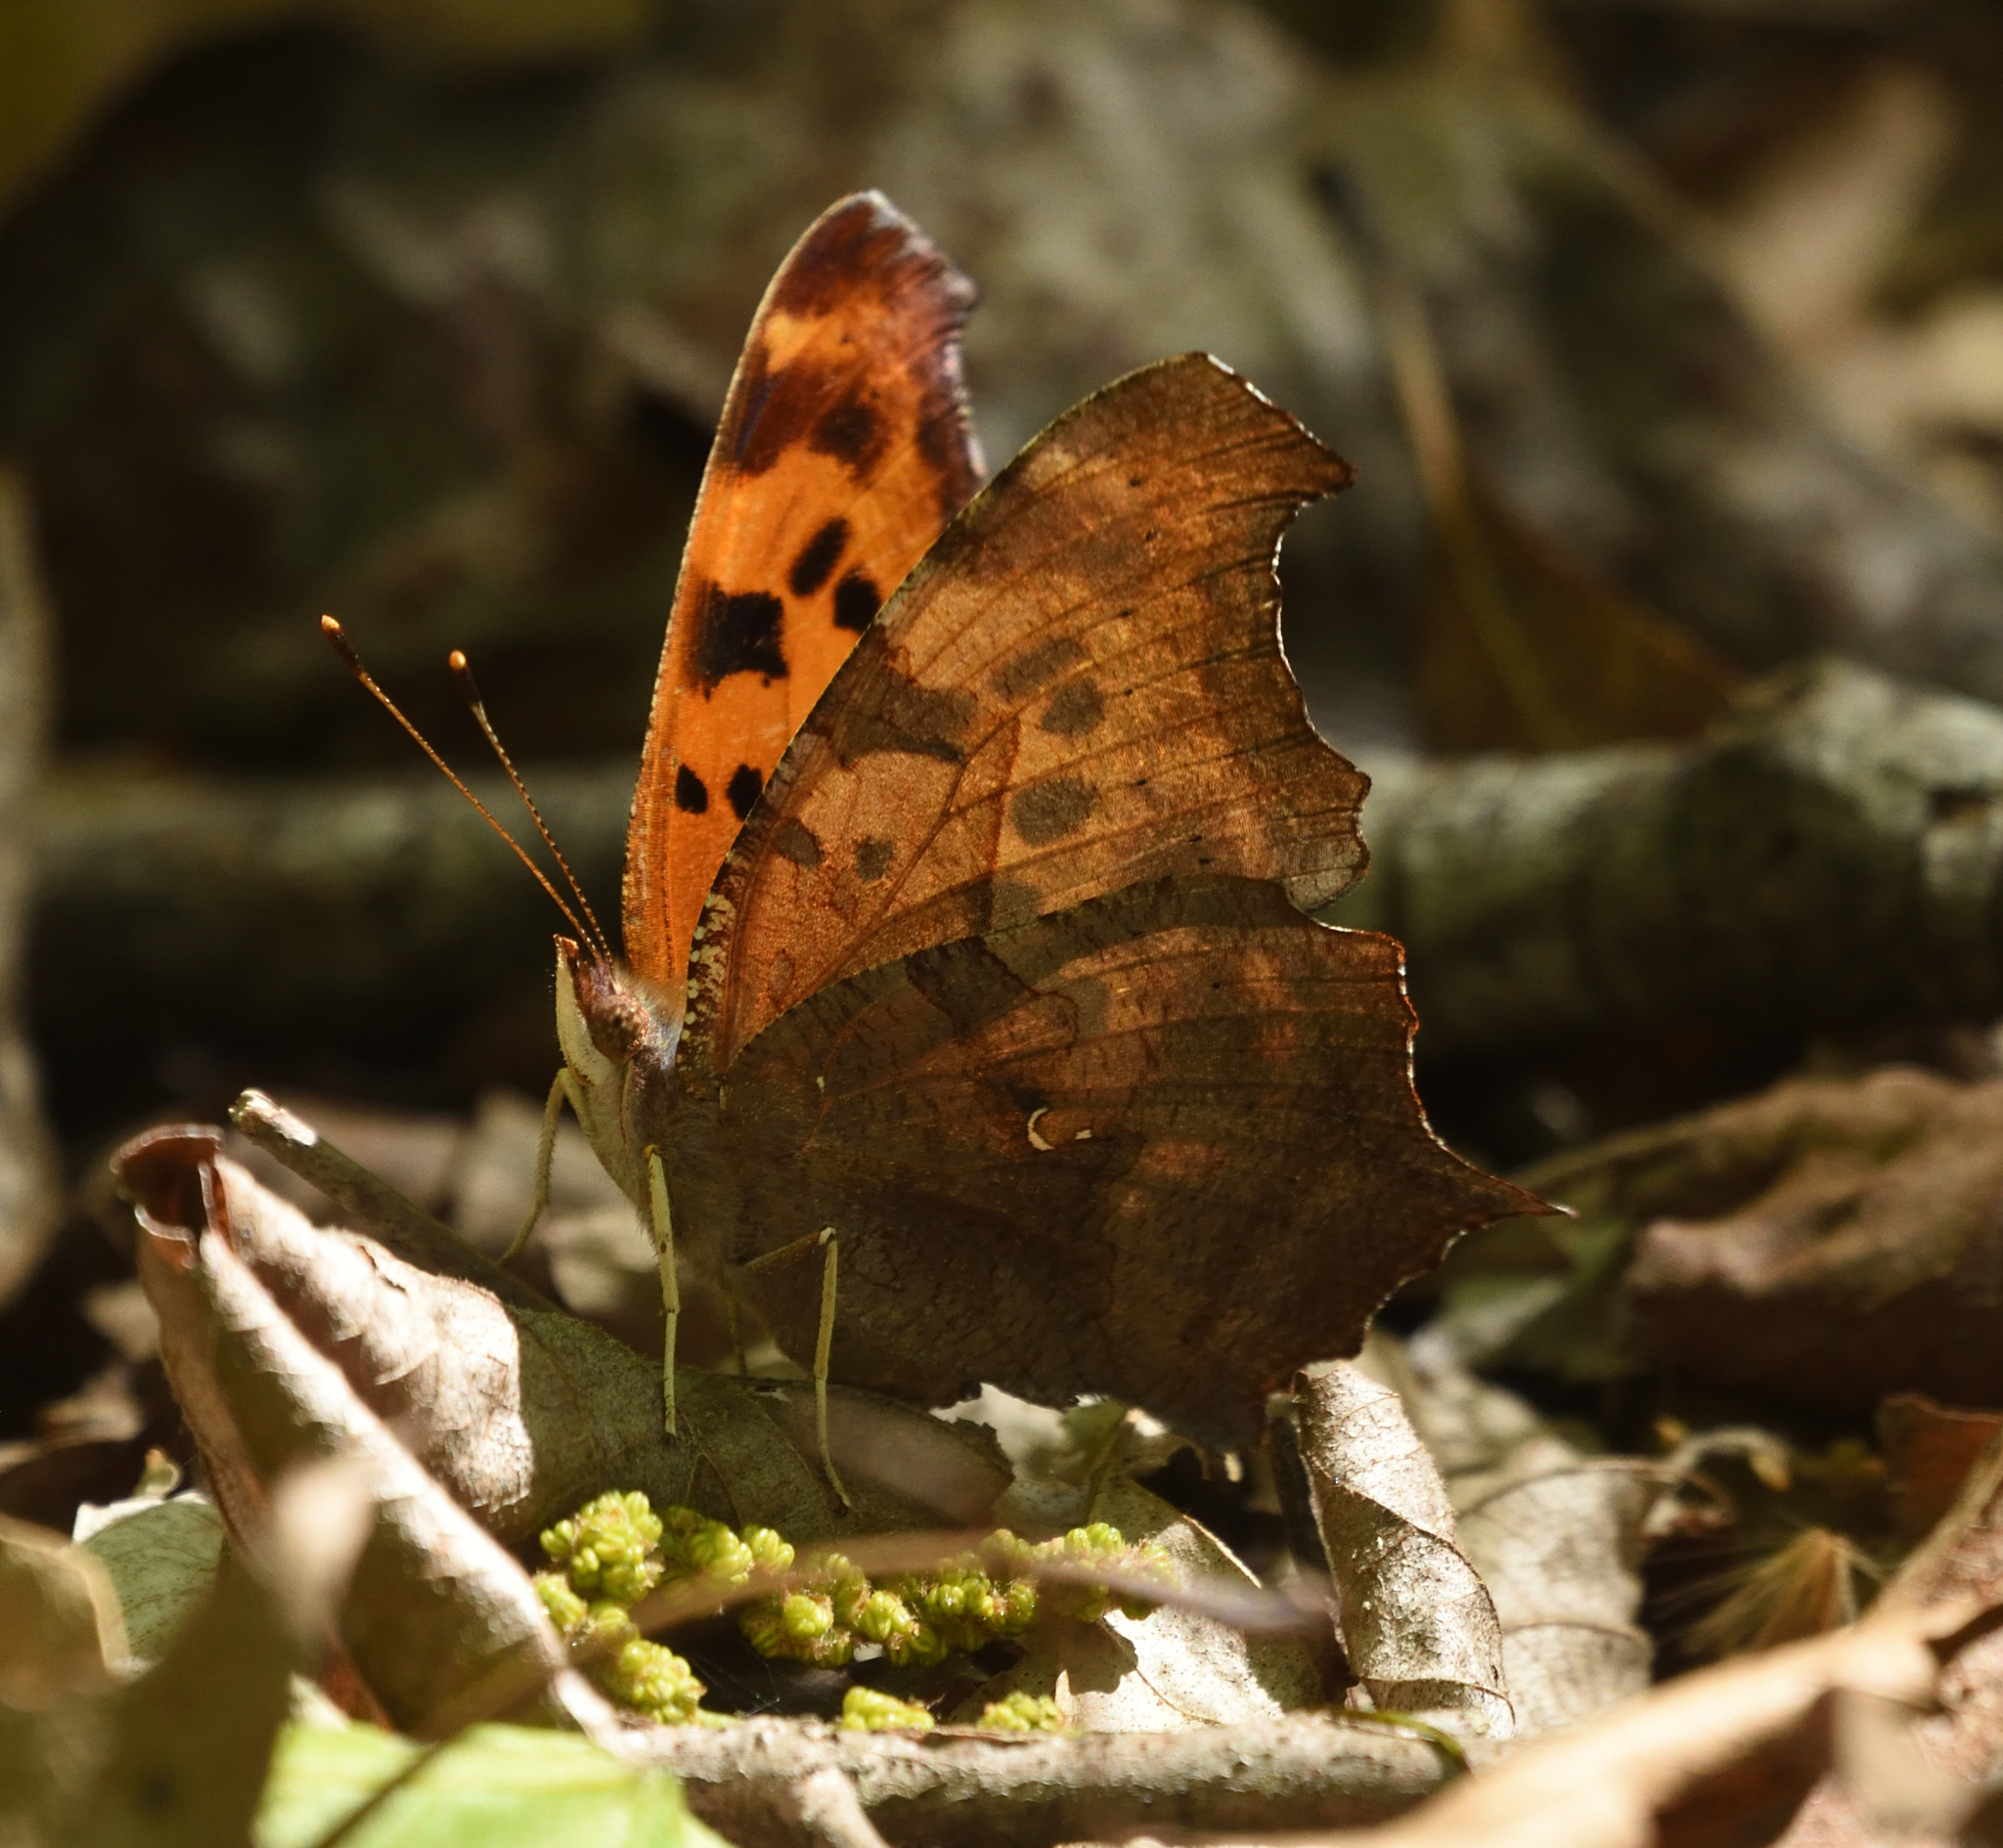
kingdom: Animalia
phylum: Arthropoda
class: Insecta
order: Lepidoptera
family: Nymphalidae
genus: Polygonia
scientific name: Polygonia interrogationis
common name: Question mark
